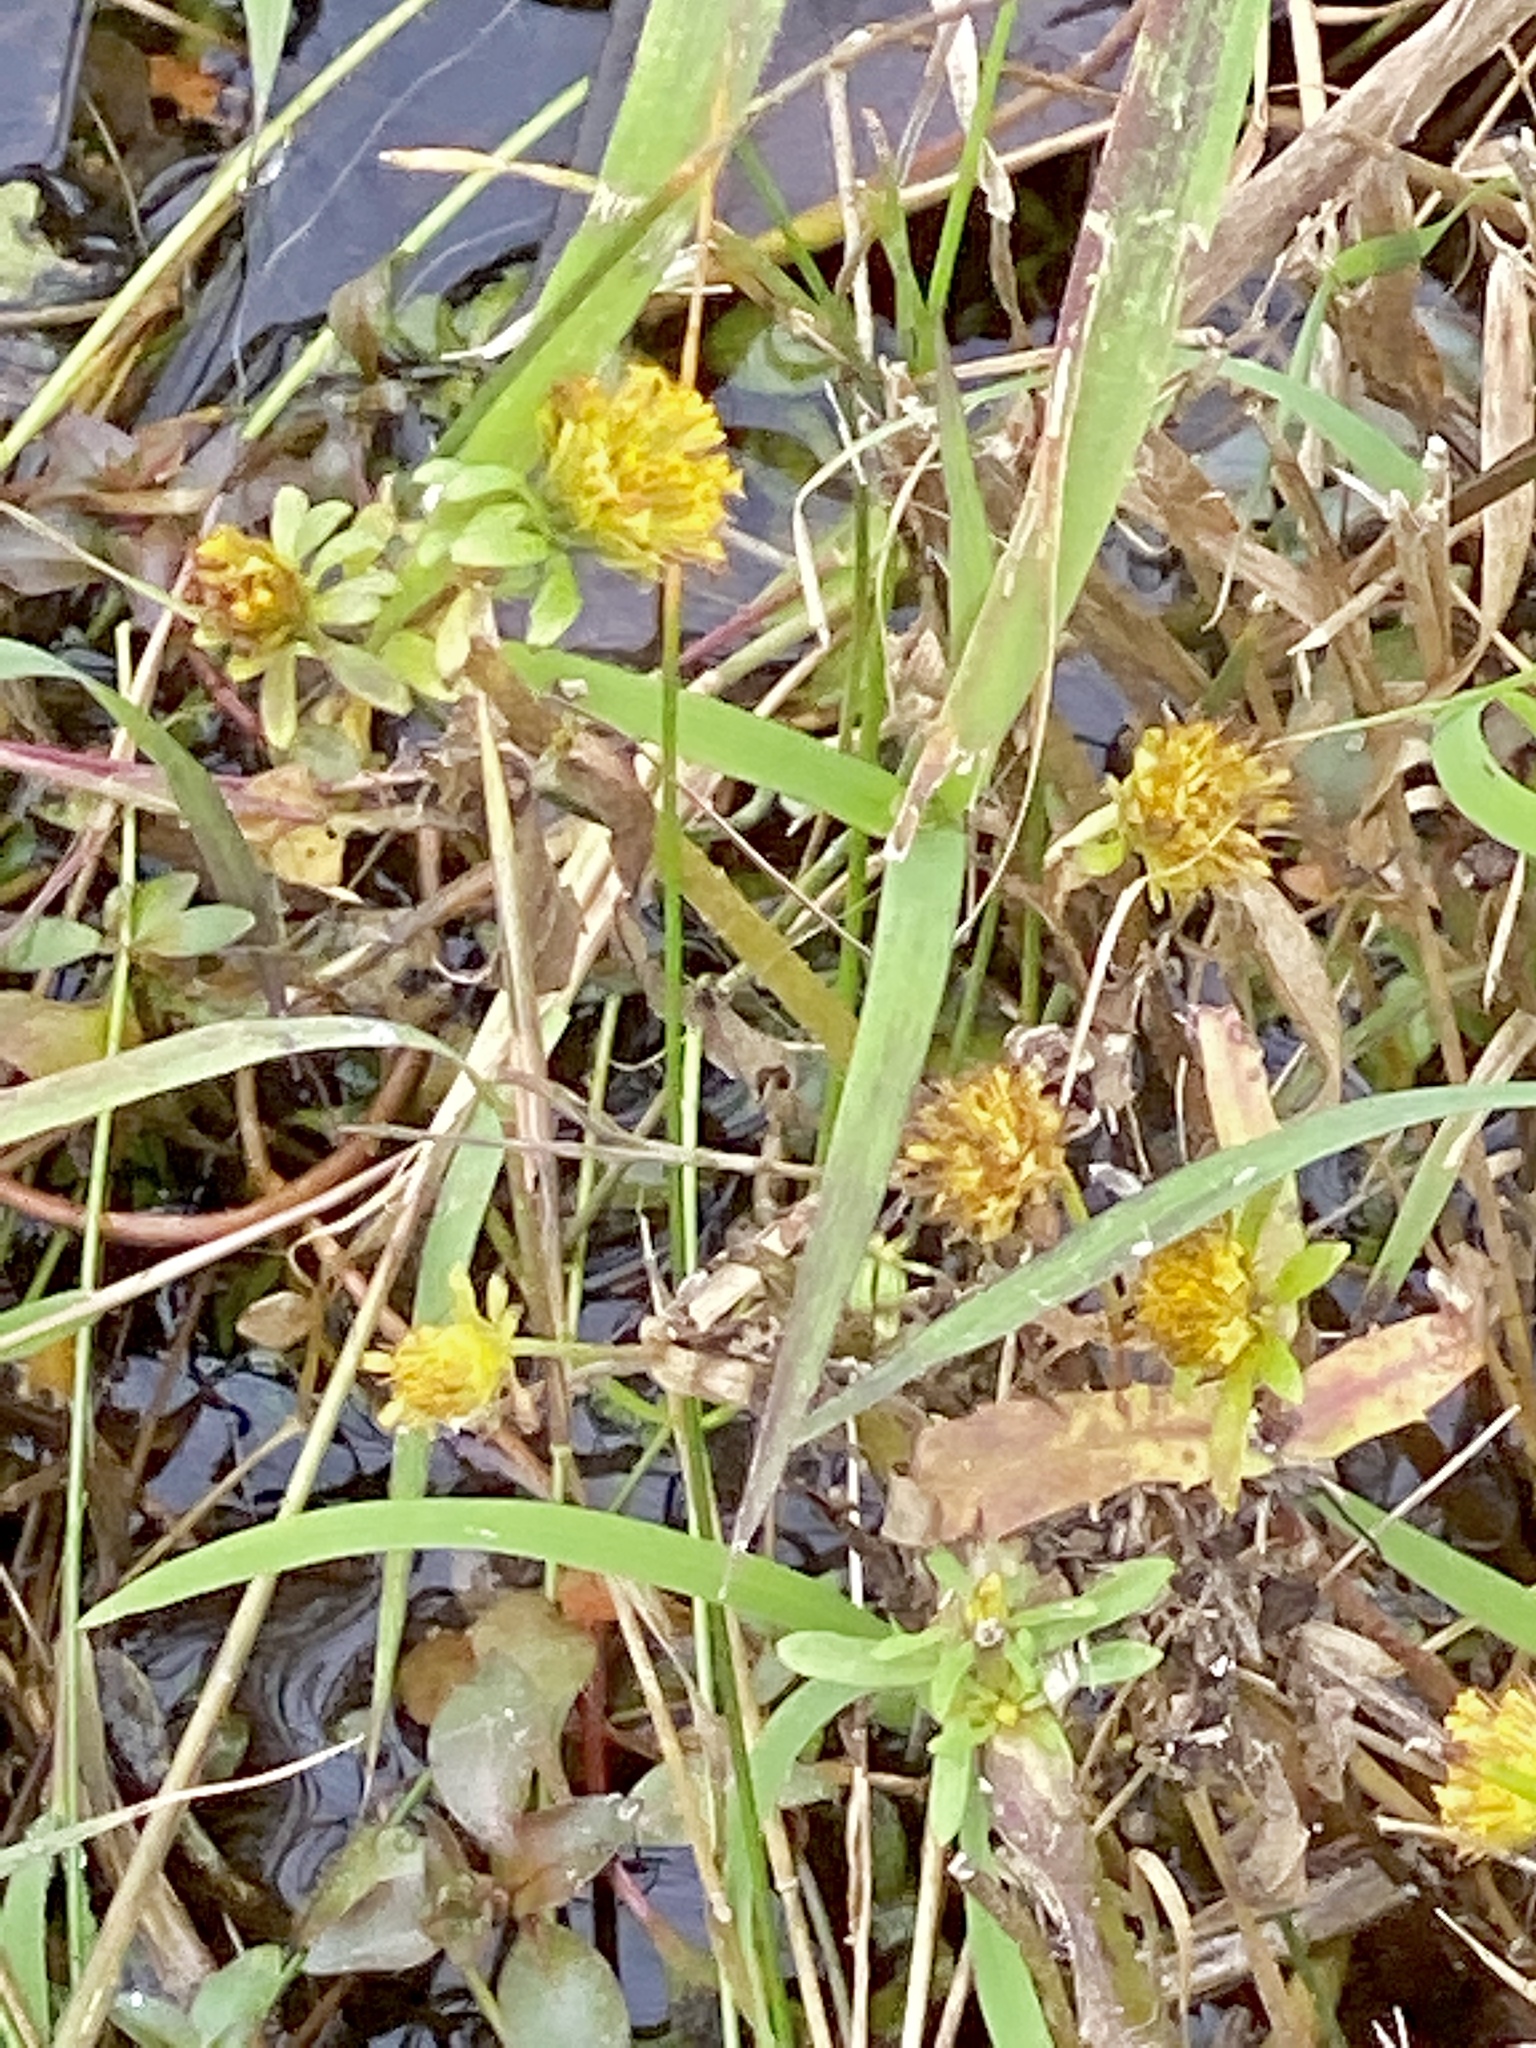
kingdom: Plantae
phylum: Tracheophyta
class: Magnoliopsida
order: Asterales
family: Asteraceae
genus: Bidens
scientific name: Bidens cernua
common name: Nodding bur-marigold
